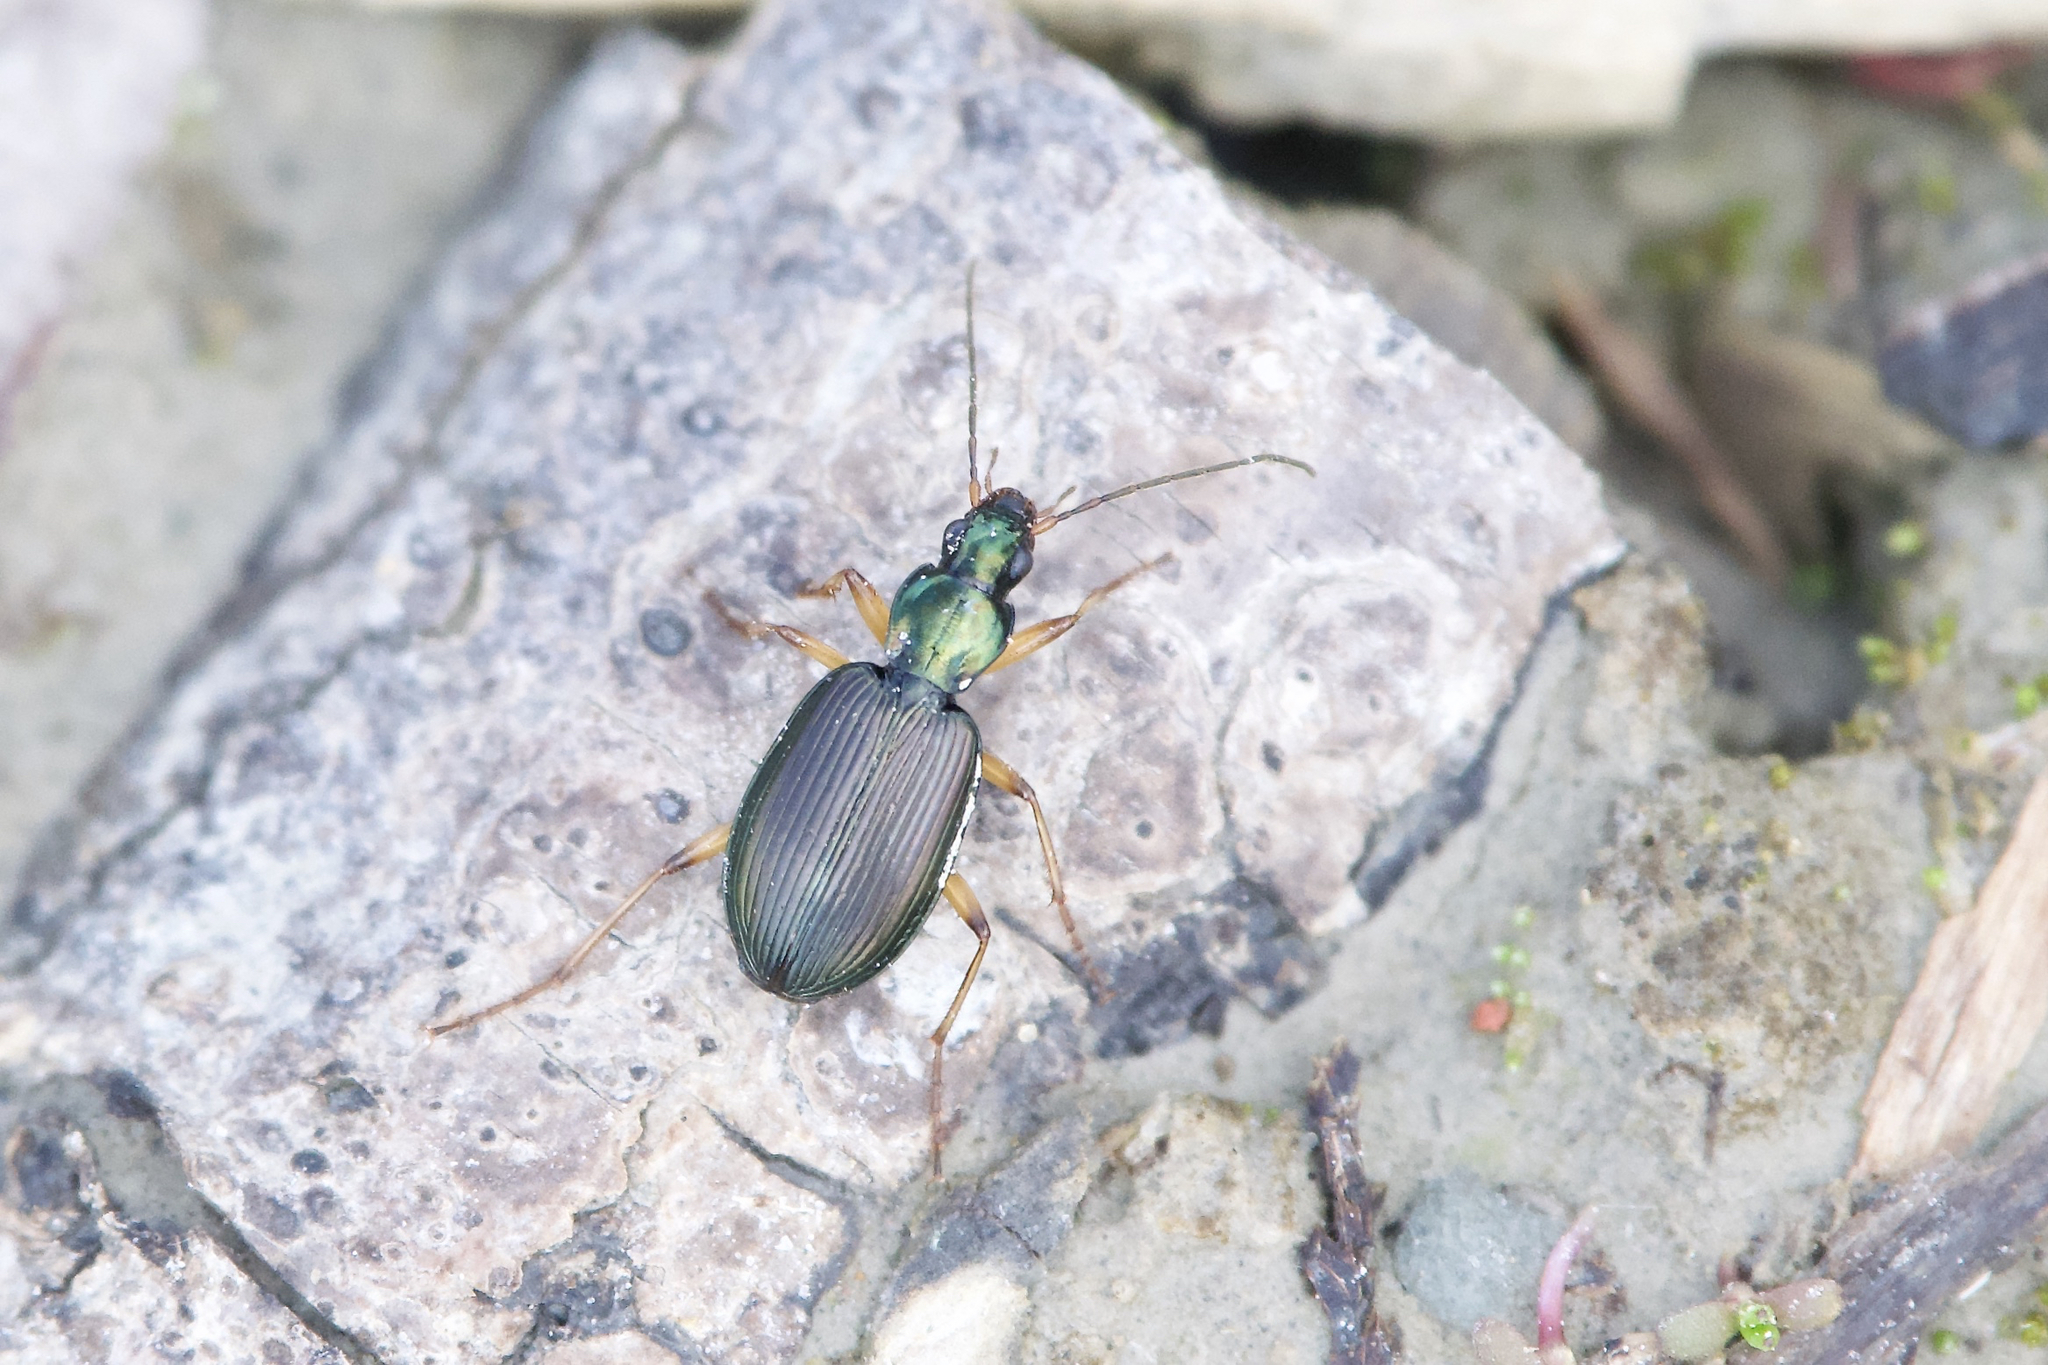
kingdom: Animalia
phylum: Arthropoda
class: Insecta
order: Coleoptera
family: Carabidae
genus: Agonum
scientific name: Agonum extensicolle
